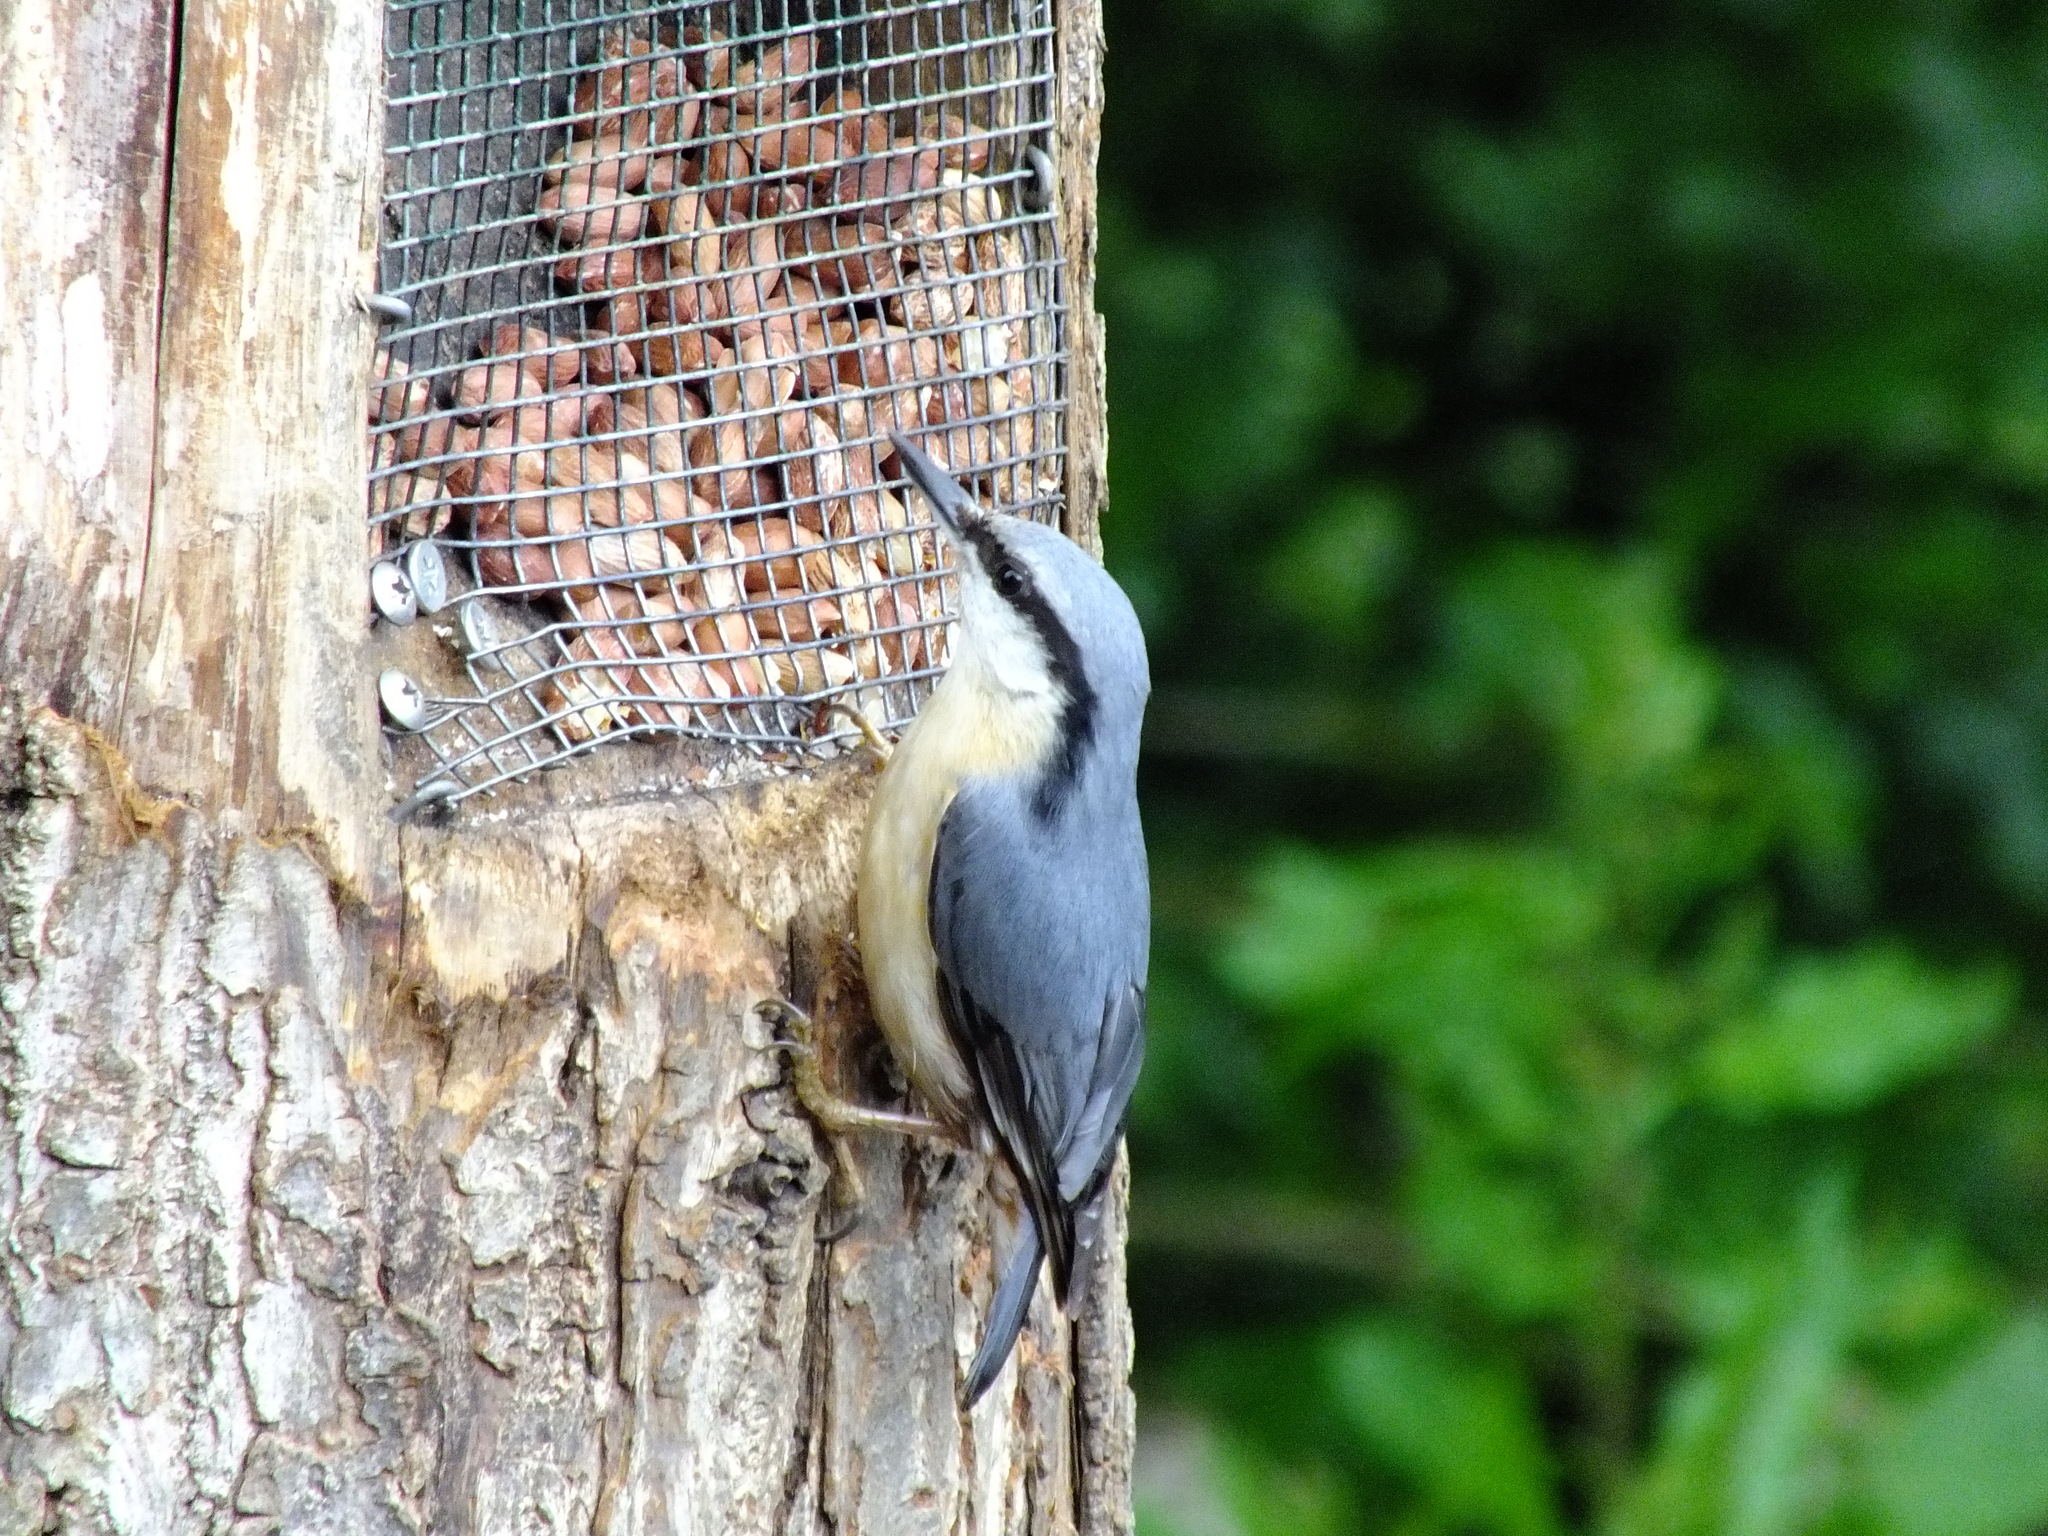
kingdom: Animalia
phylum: Chordata
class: Aves
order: Passeriformes
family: Sittidae
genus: Sitta
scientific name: Sitta europaea
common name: Eurasian nuthatch
